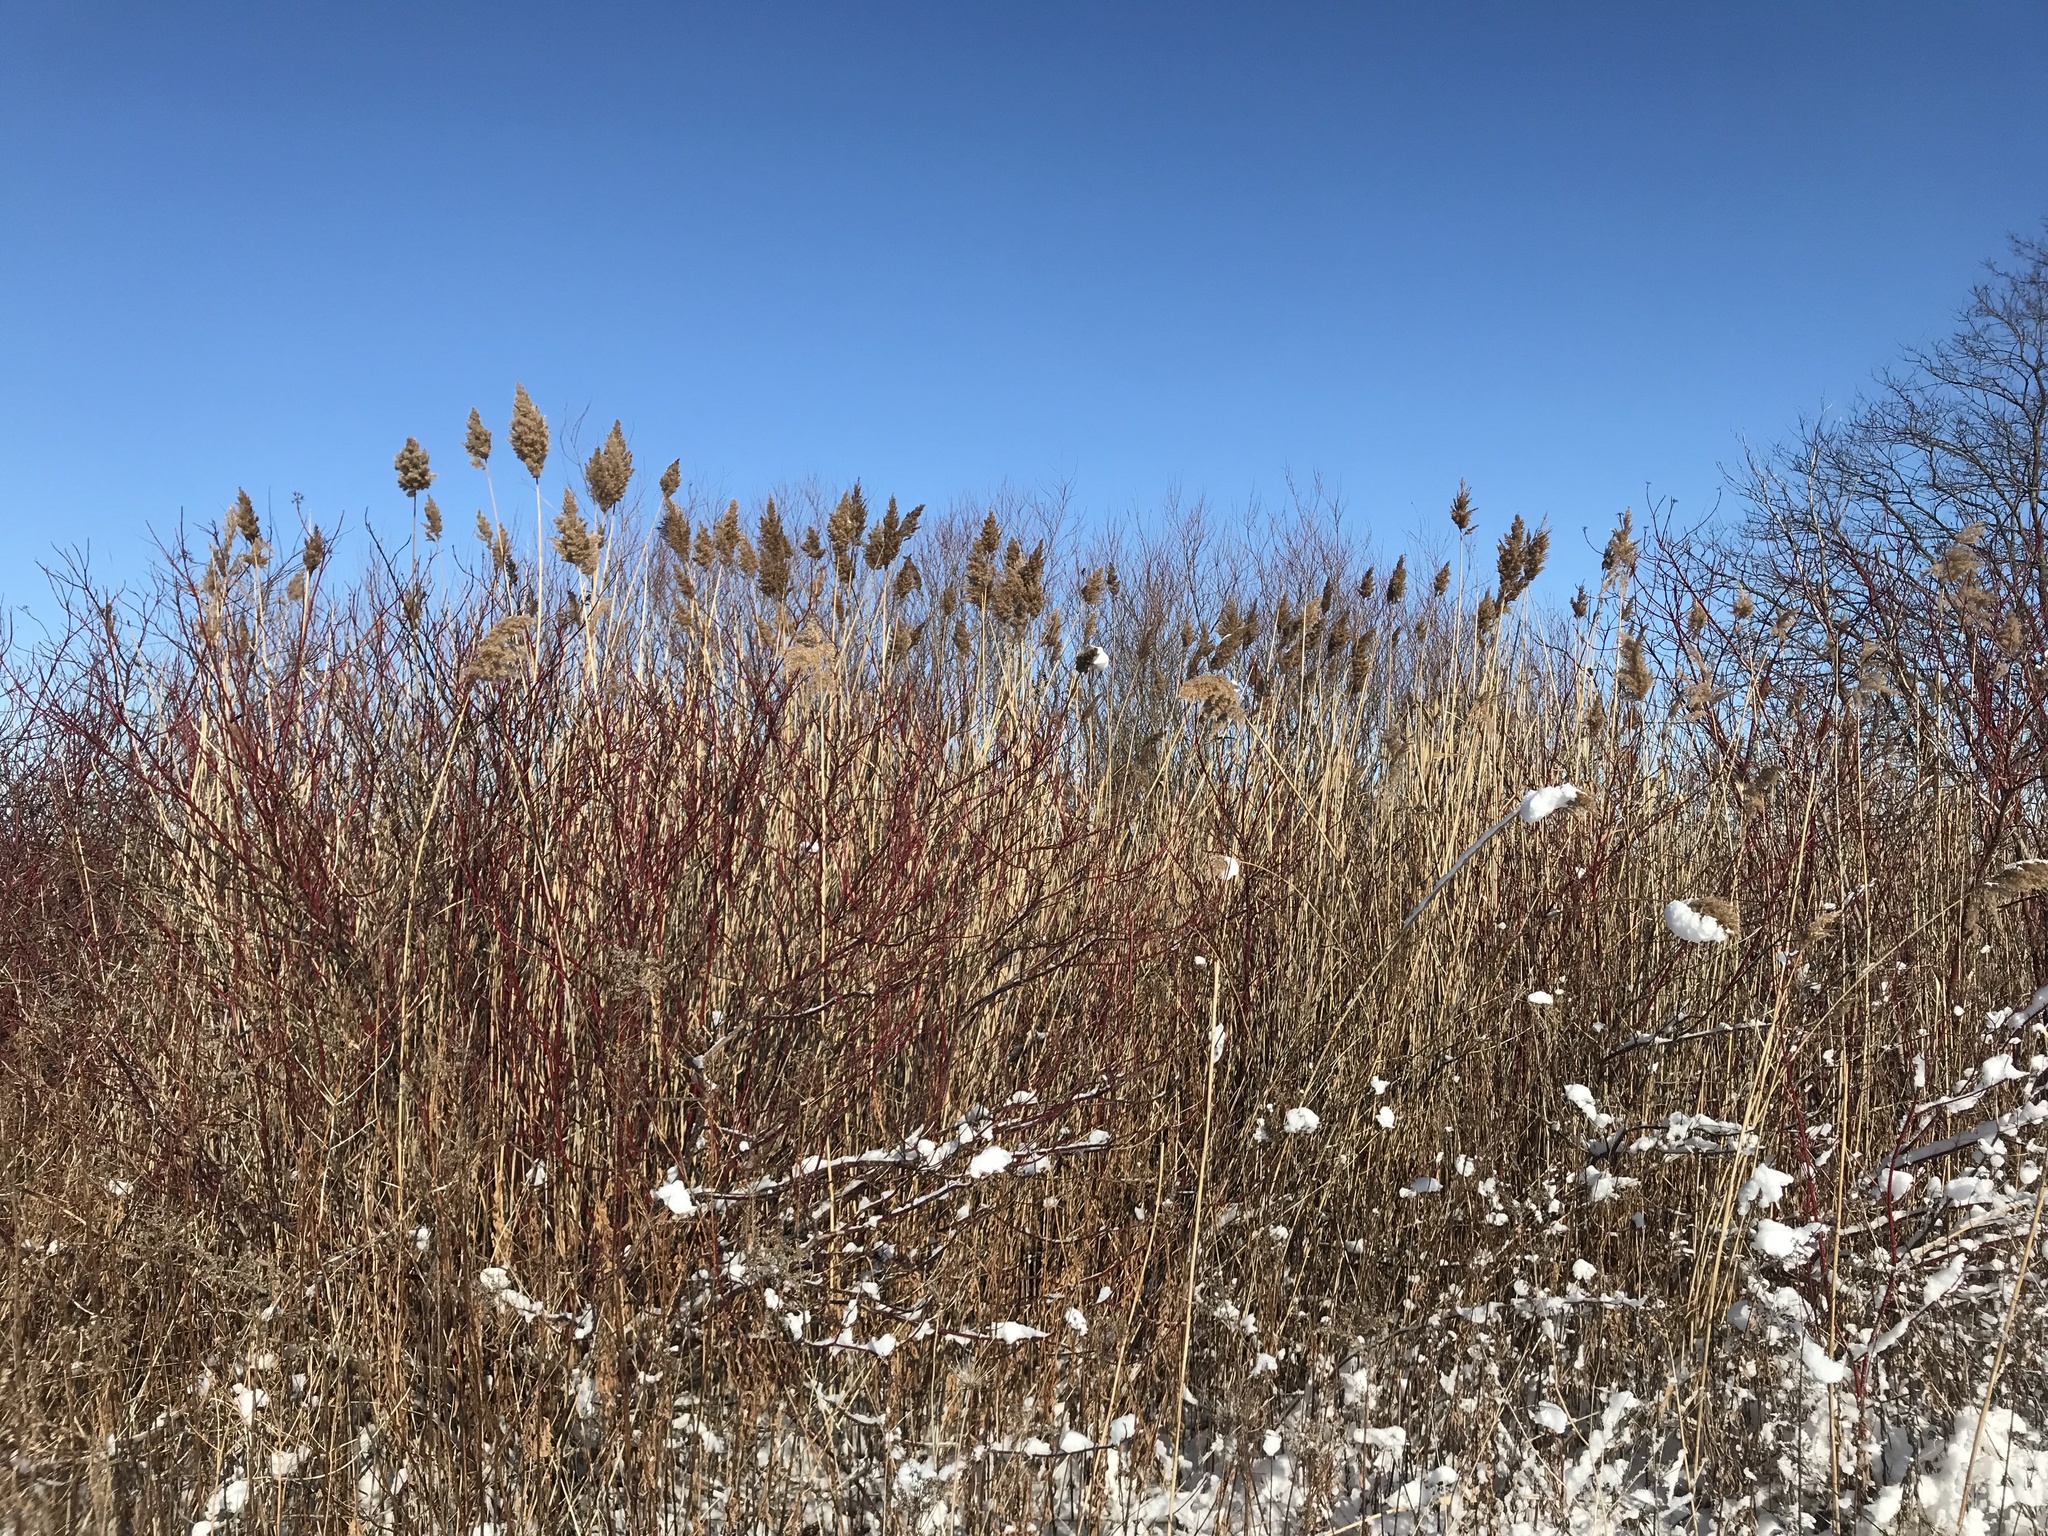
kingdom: Plantae
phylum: Tracheophyta
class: Liliopsida
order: Poales
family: Poaceae
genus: Phragmites
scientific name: Phragmites australis
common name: Common reed
